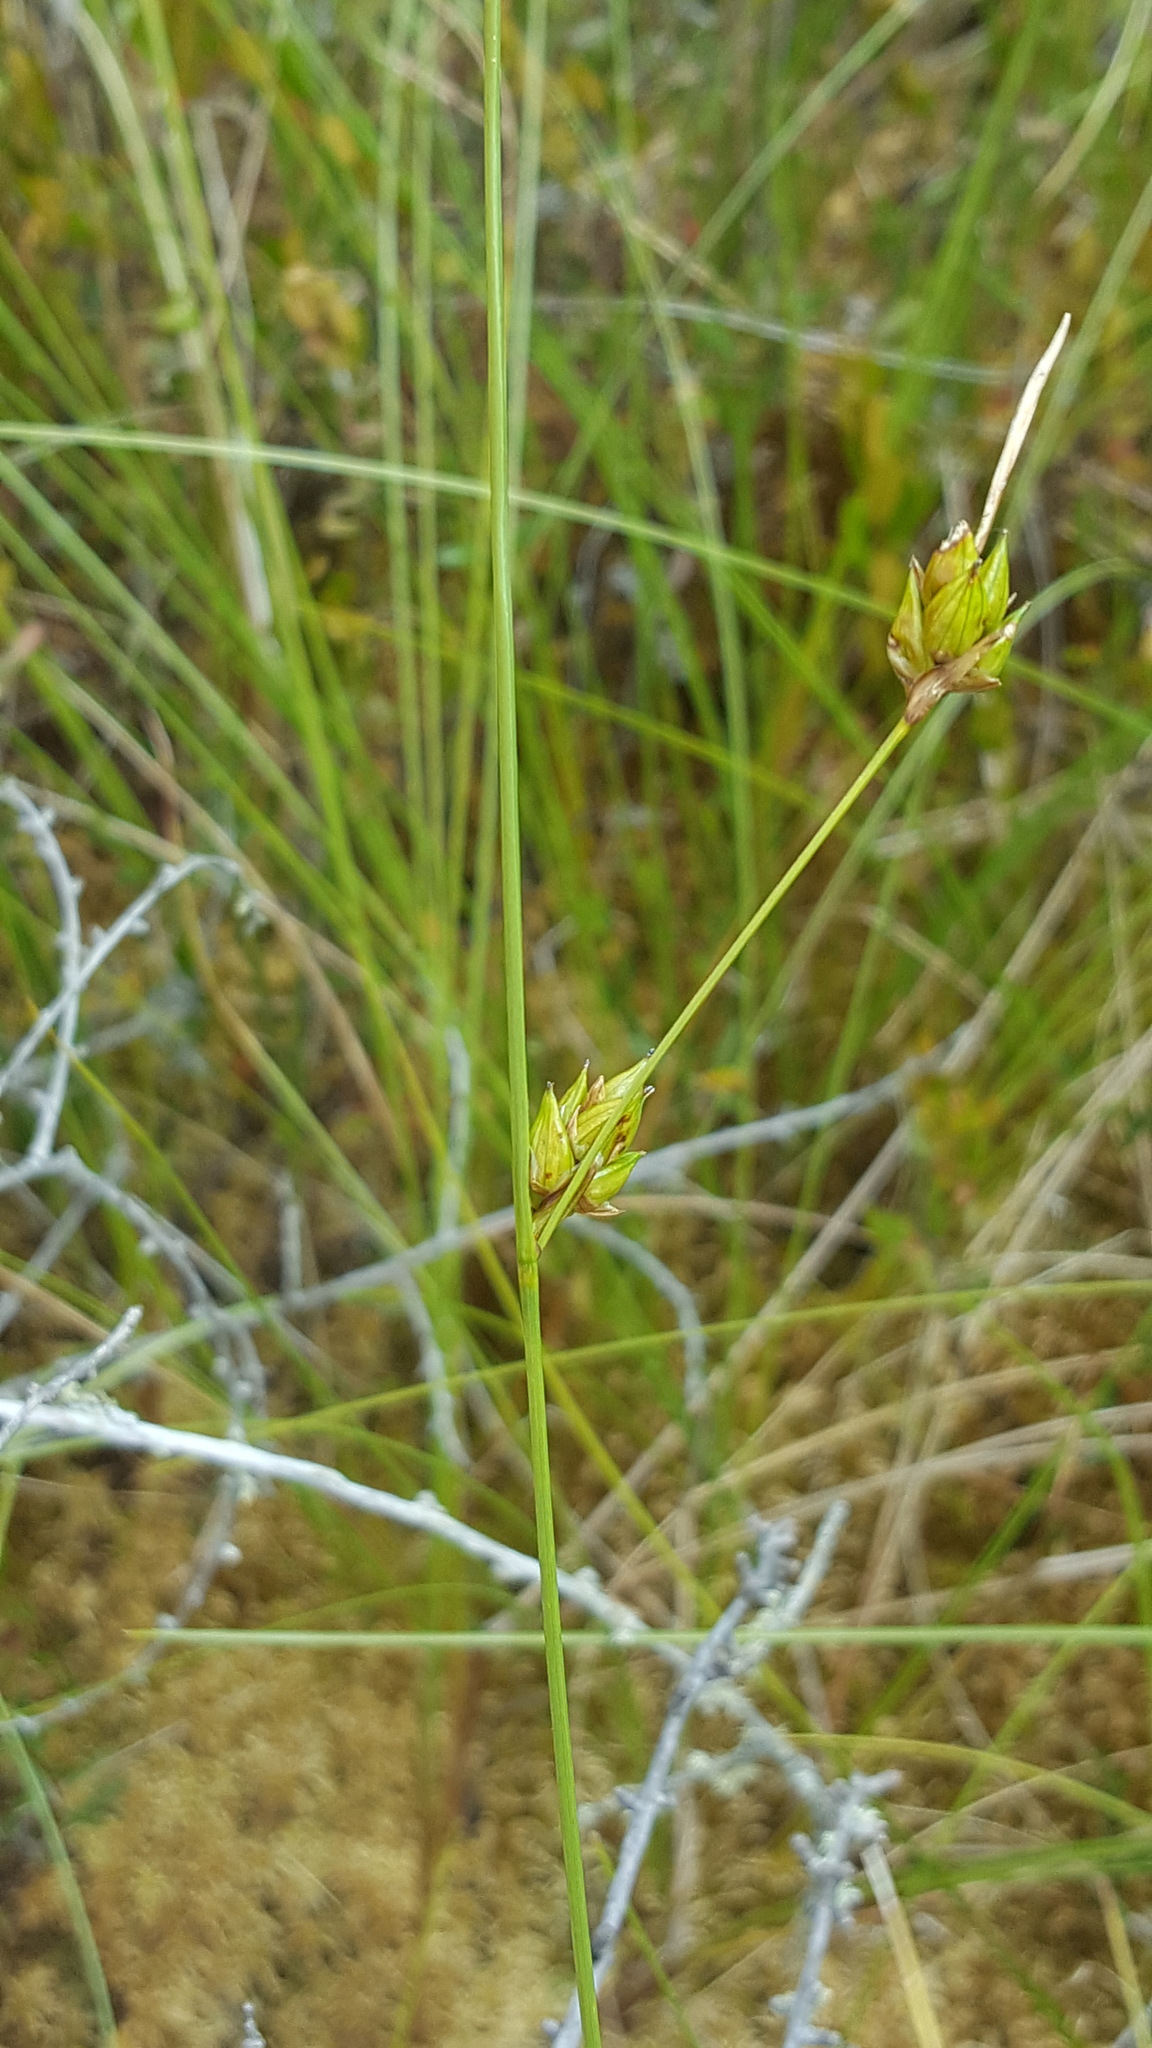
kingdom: Plantae
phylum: Tracheophyta
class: Liliopsida
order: Poales
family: Cyperaceae
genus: Carex
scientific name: Carex oligosperma
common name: Few-seed sedge
